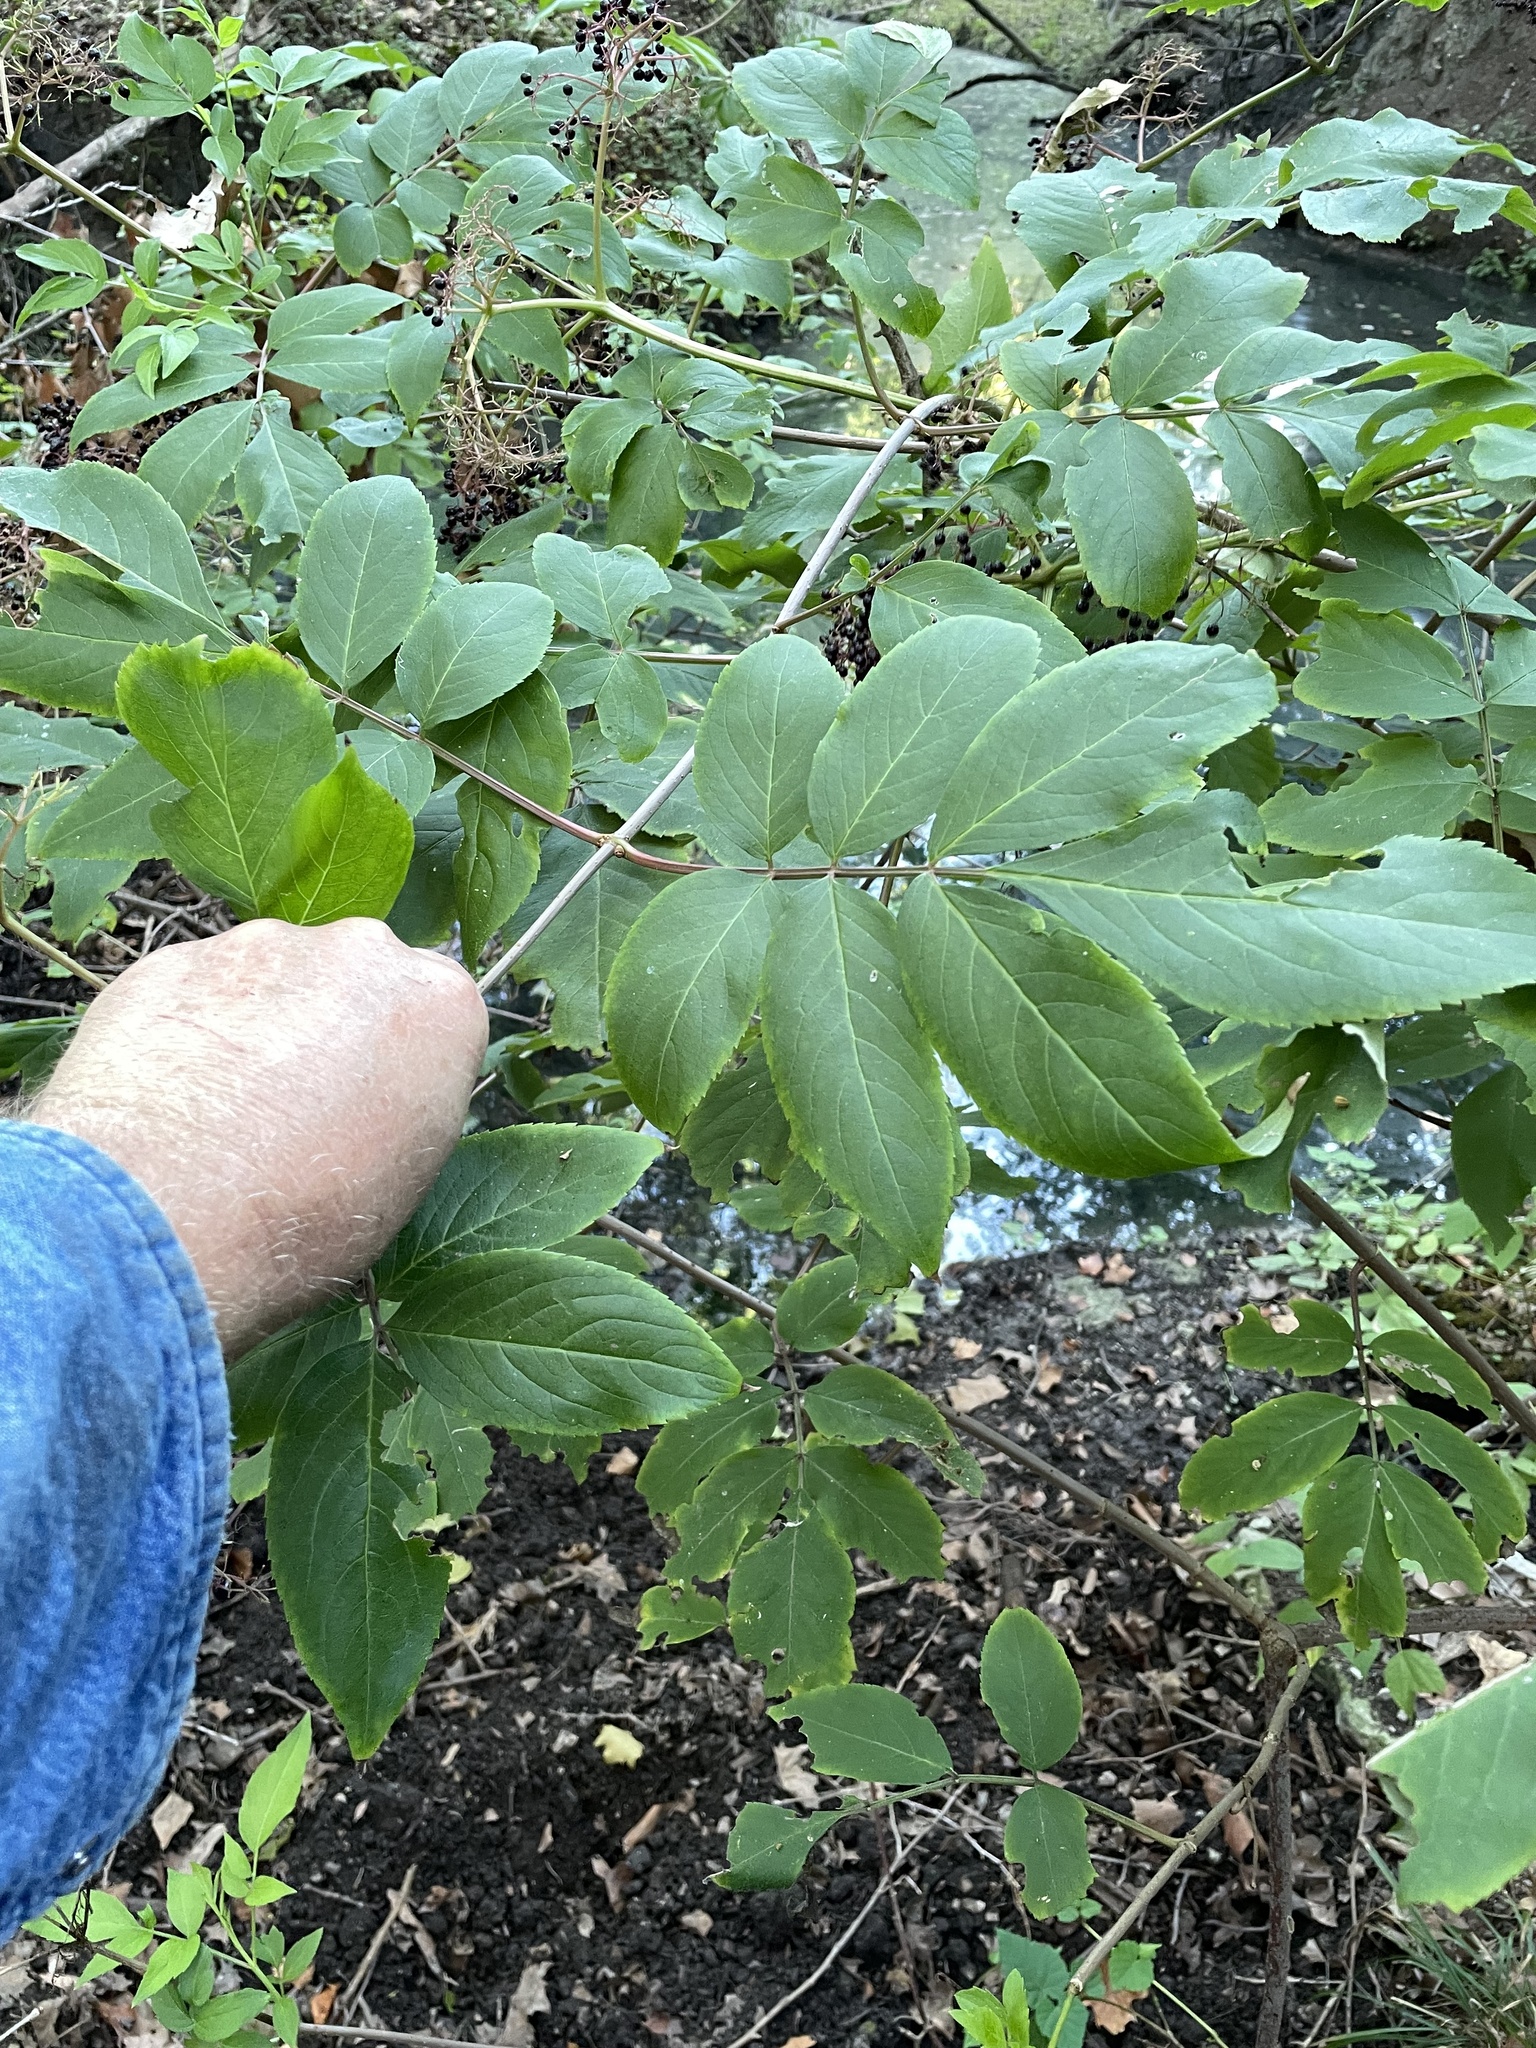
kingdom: Plantae
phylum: Tracheophyta
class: Magnoliopsida
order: Dipsacales
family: Viburnaceae
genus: Sambucus
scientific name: Sambucus canadensis
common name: American elder
